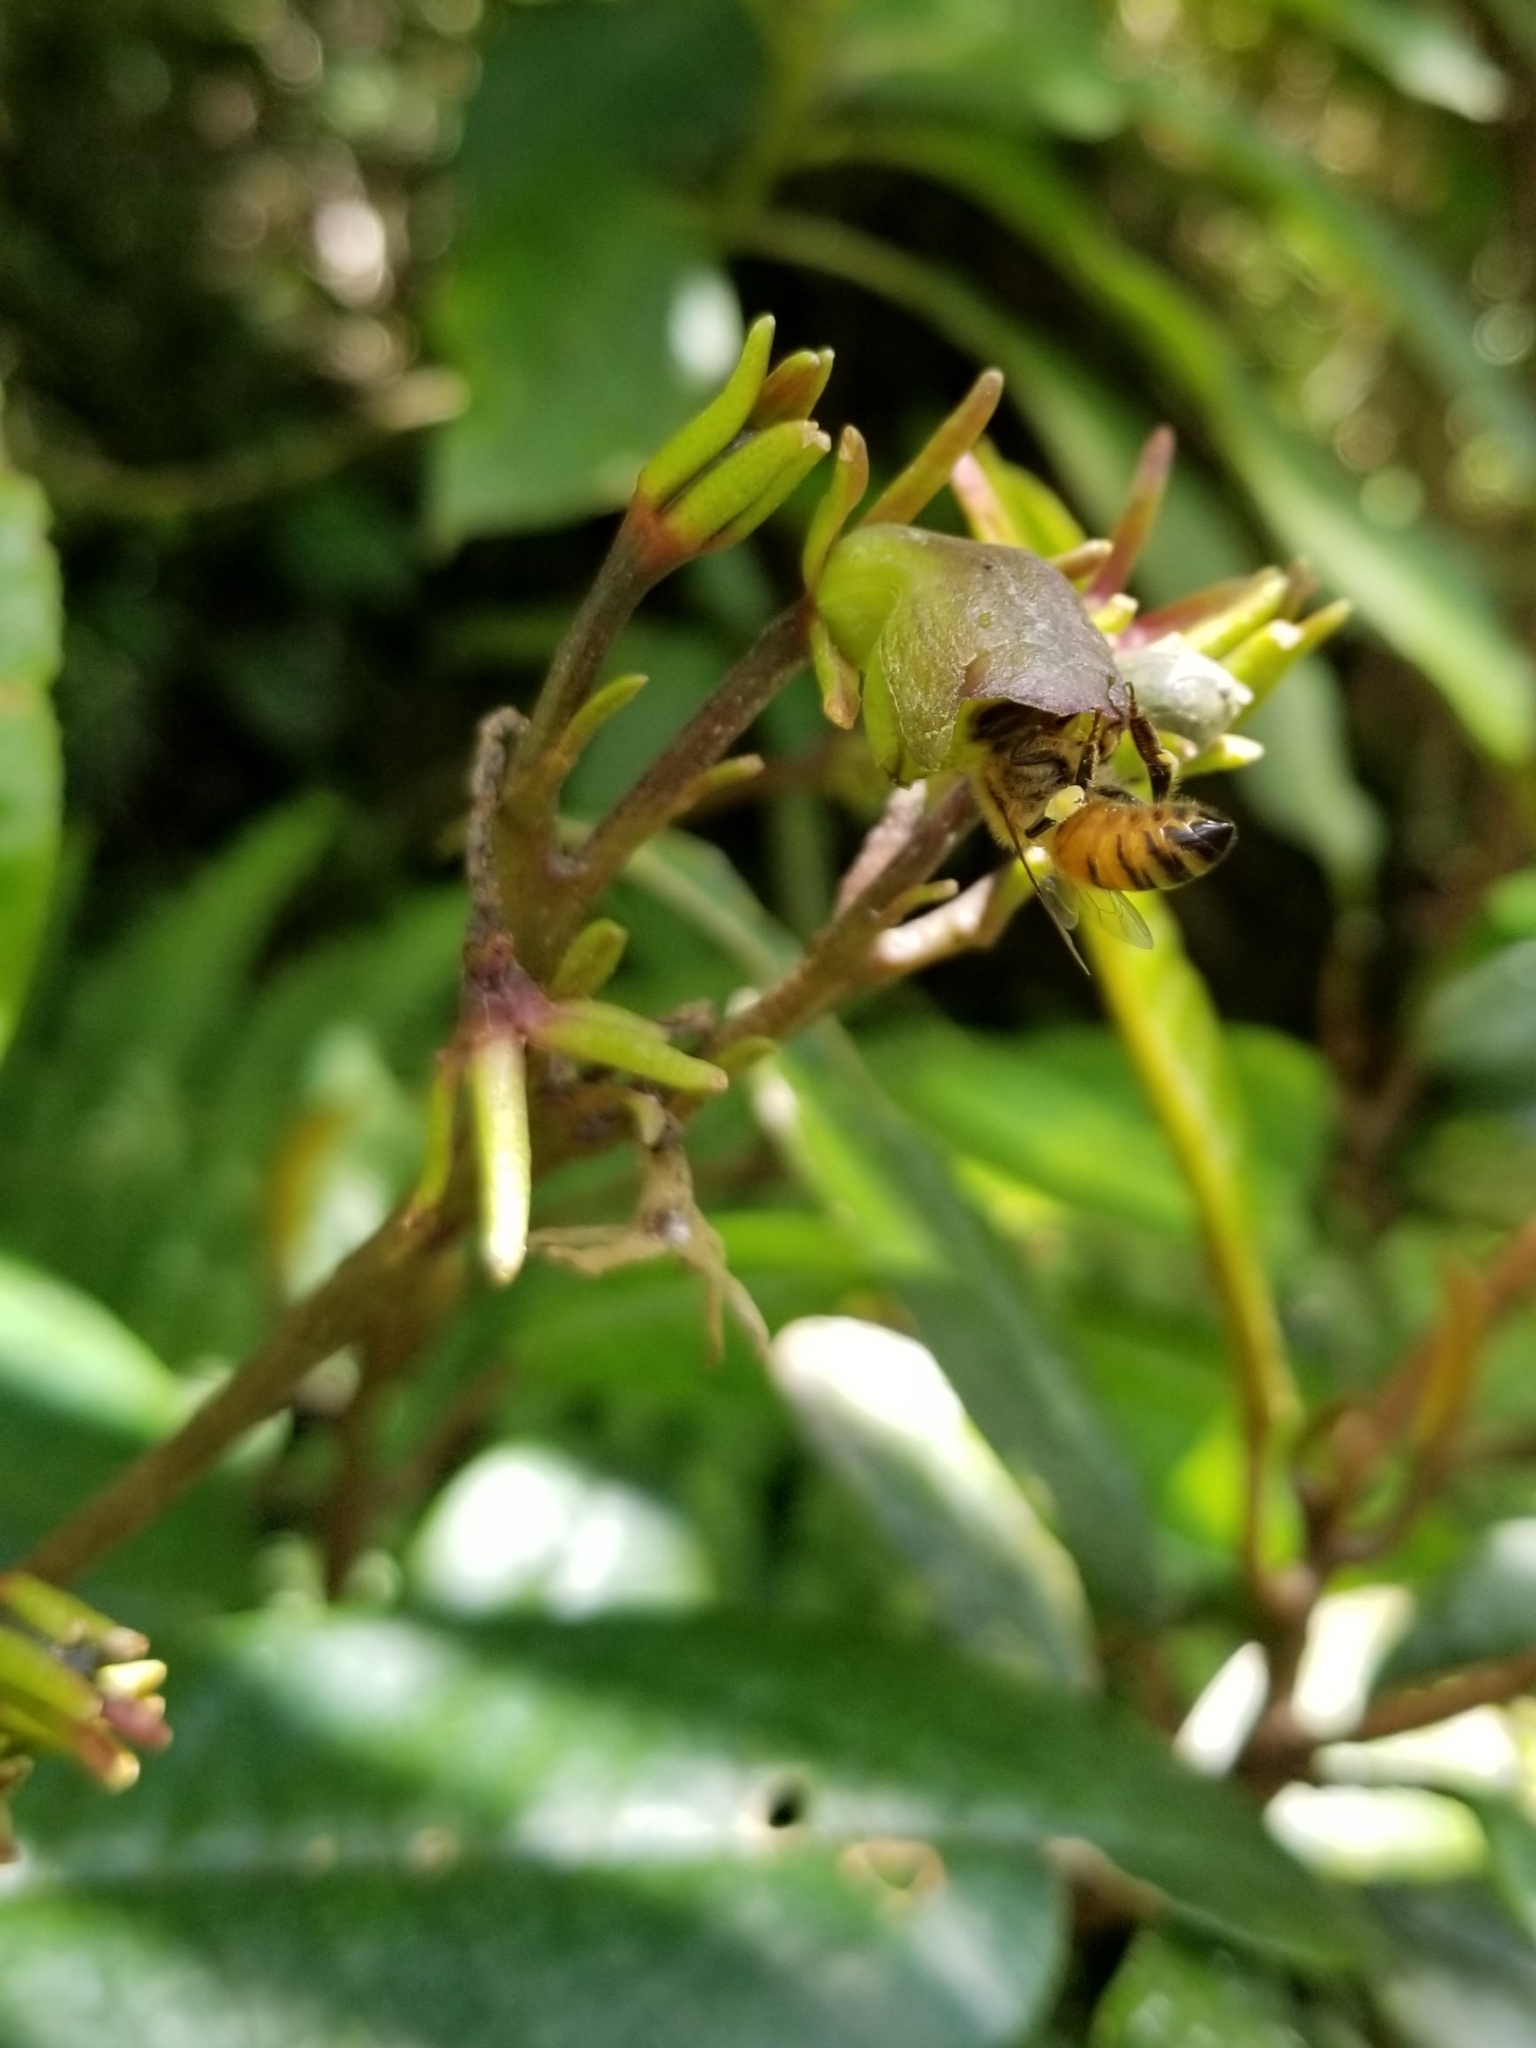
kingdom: Animalia
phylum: Arthropoda
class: Insecta
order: Hymenoptera
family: Apidae
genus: Apis
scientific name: Apis mellifera
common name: Honey bee
